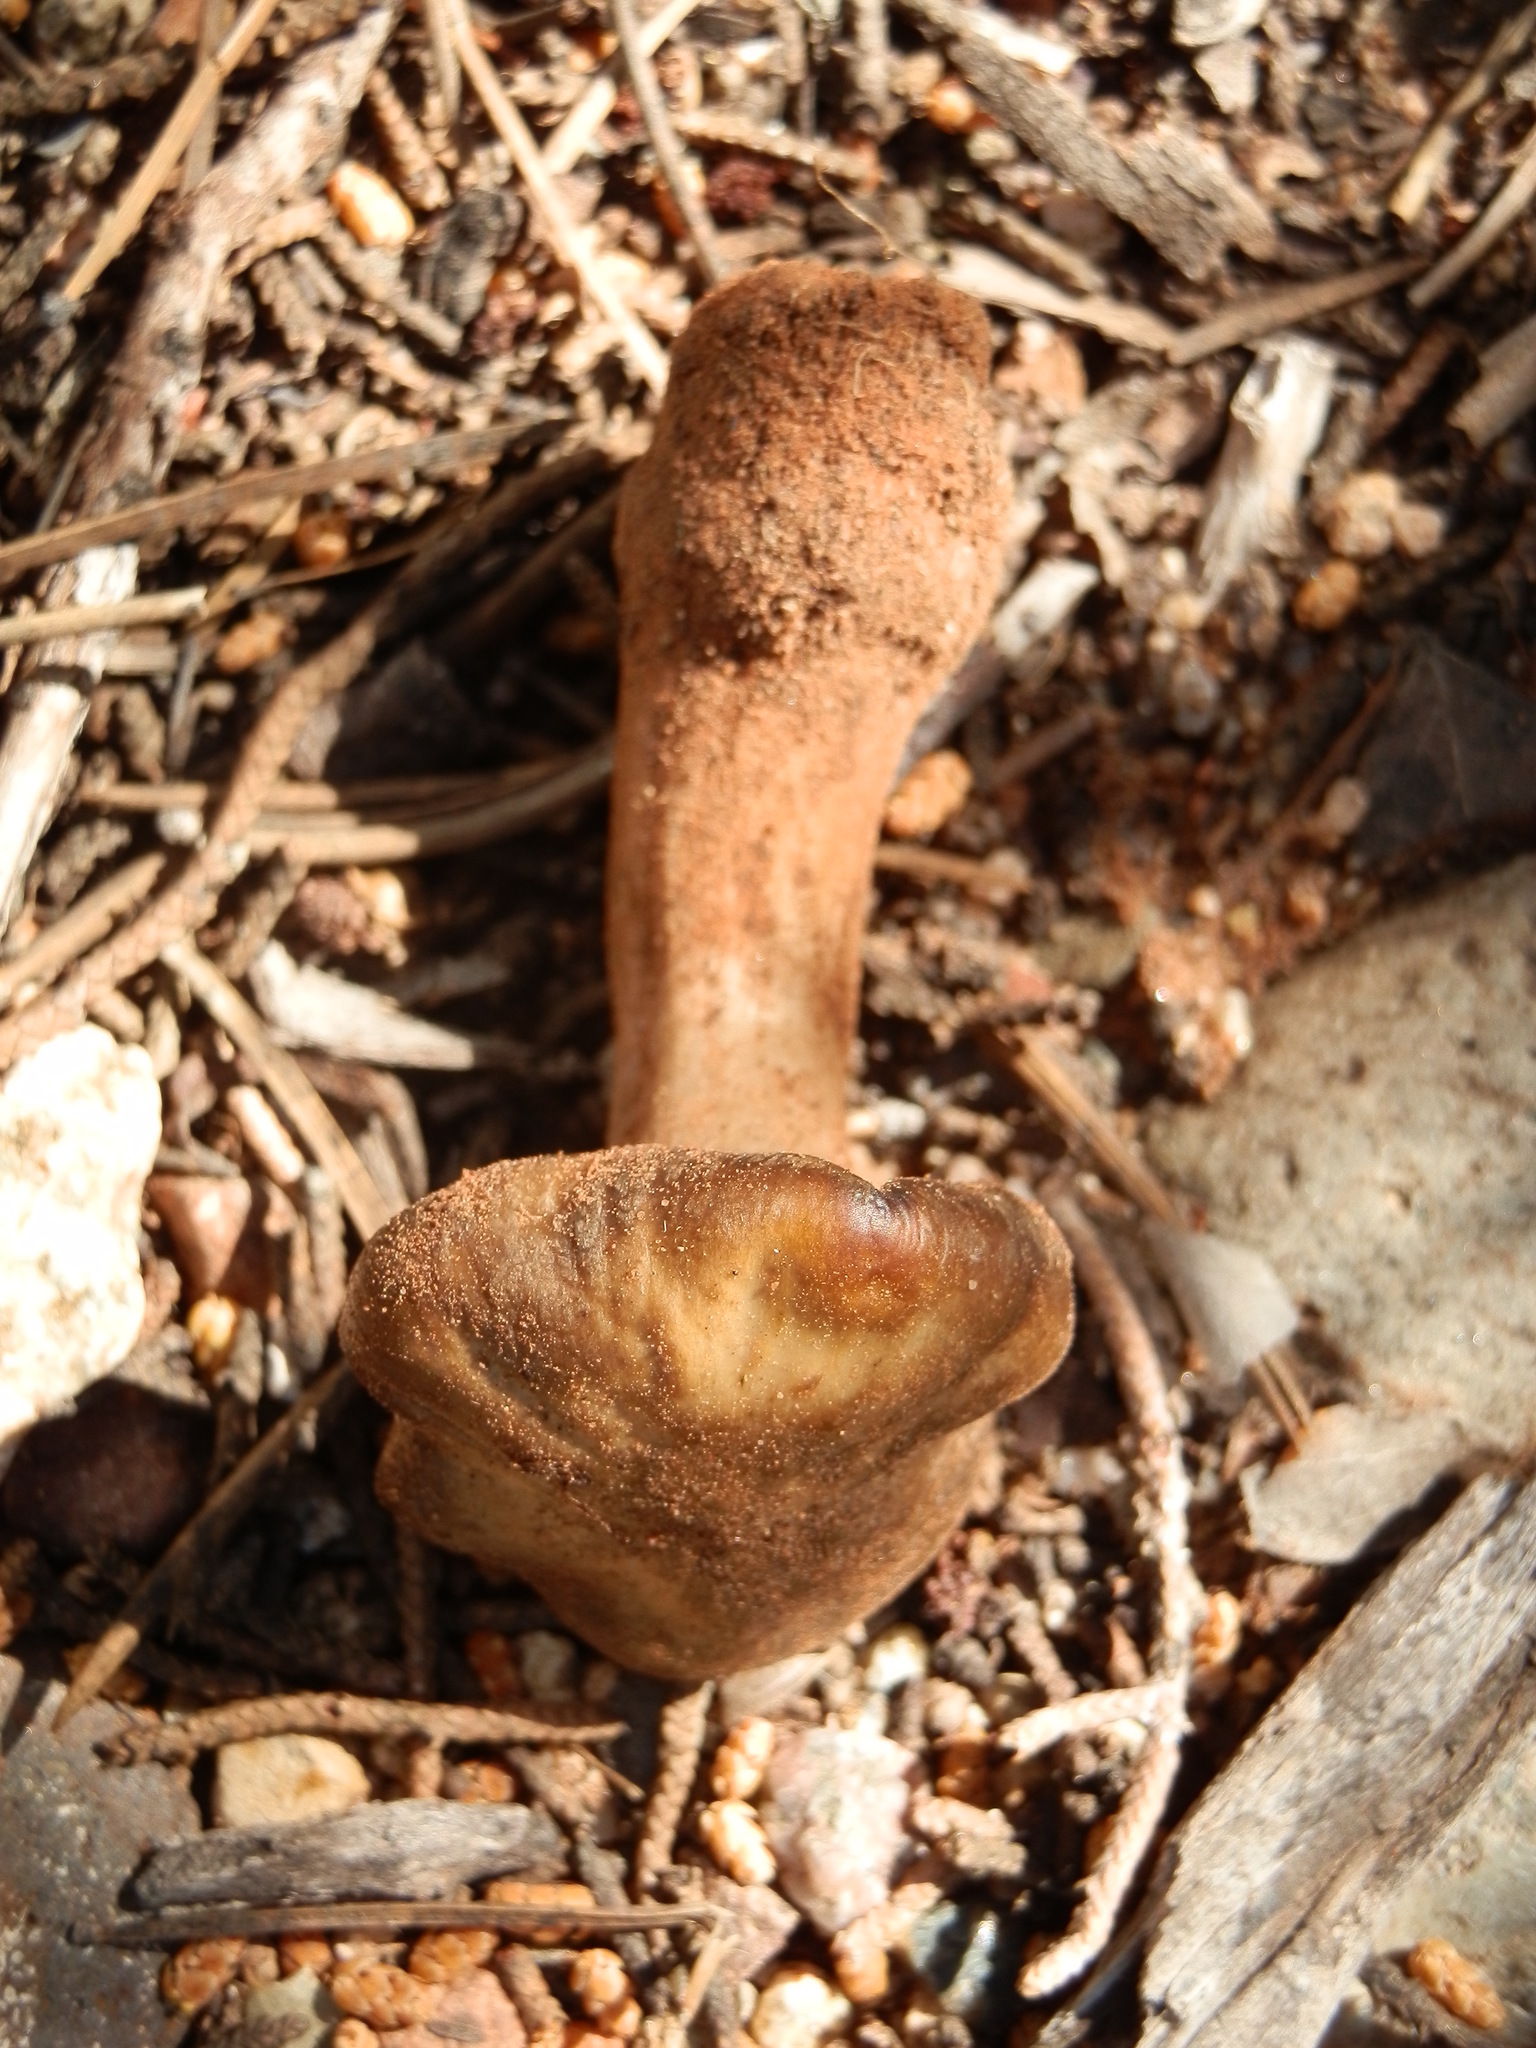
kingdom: Fungi
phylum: Basidiomycota
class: Agaricomycetes
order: Agaricales
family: Entolomataceae
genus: Entoloma
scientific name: Entoloma clypeatum
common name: Shield pinkgill
